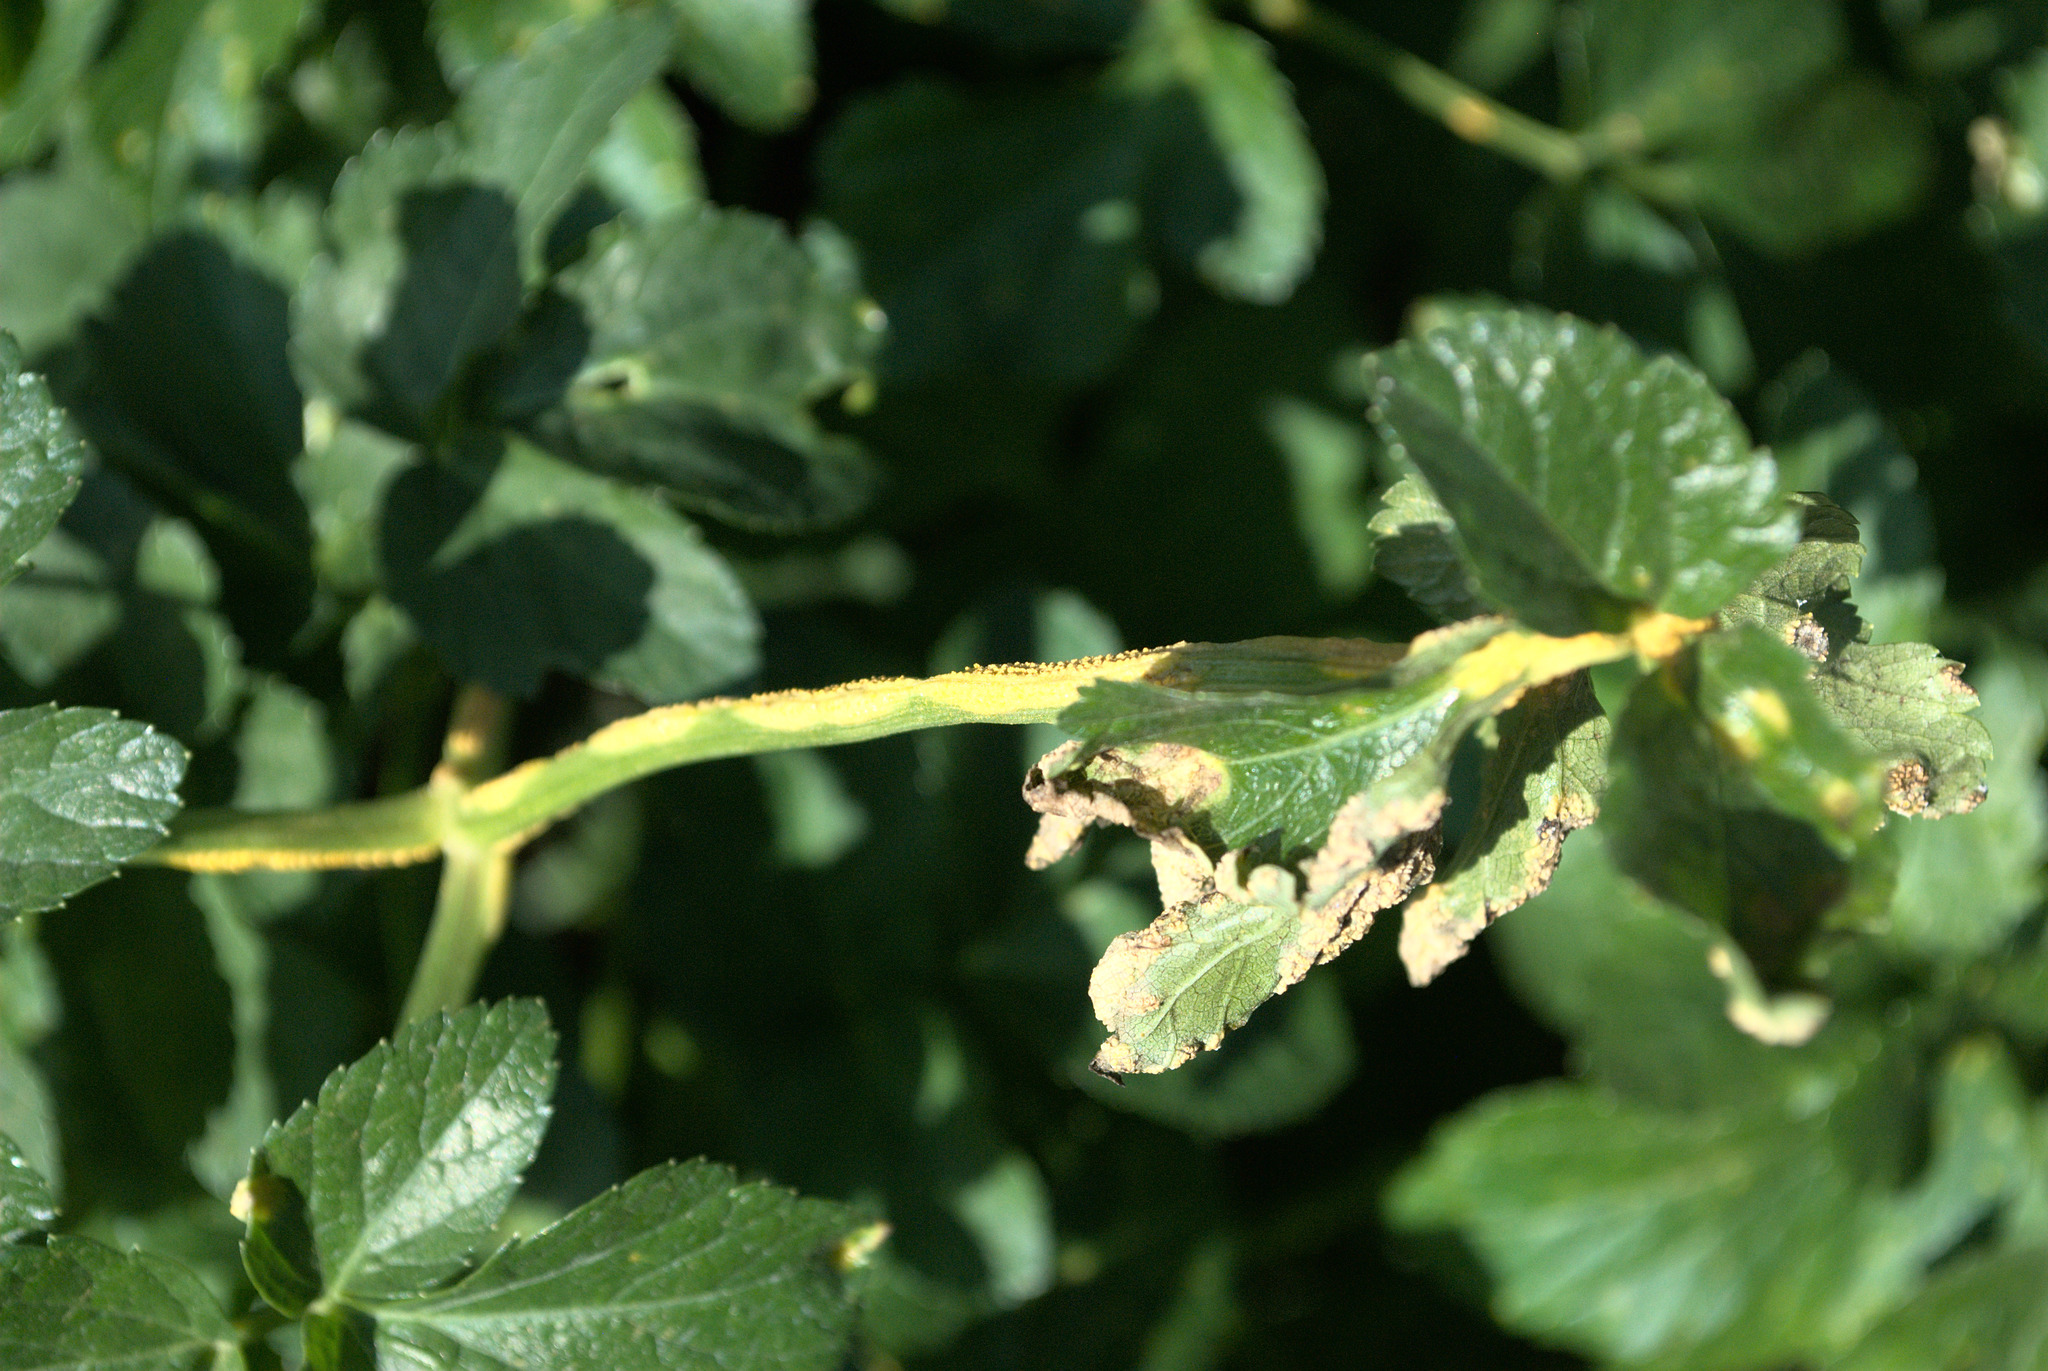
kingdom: Fungi
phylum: Basidiomycota
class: Pucciniomycetes
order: Pucciniales
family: Pucciniaceae
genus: Puccinia
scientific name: Puccinia smyrnii
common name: Alexanders rust
